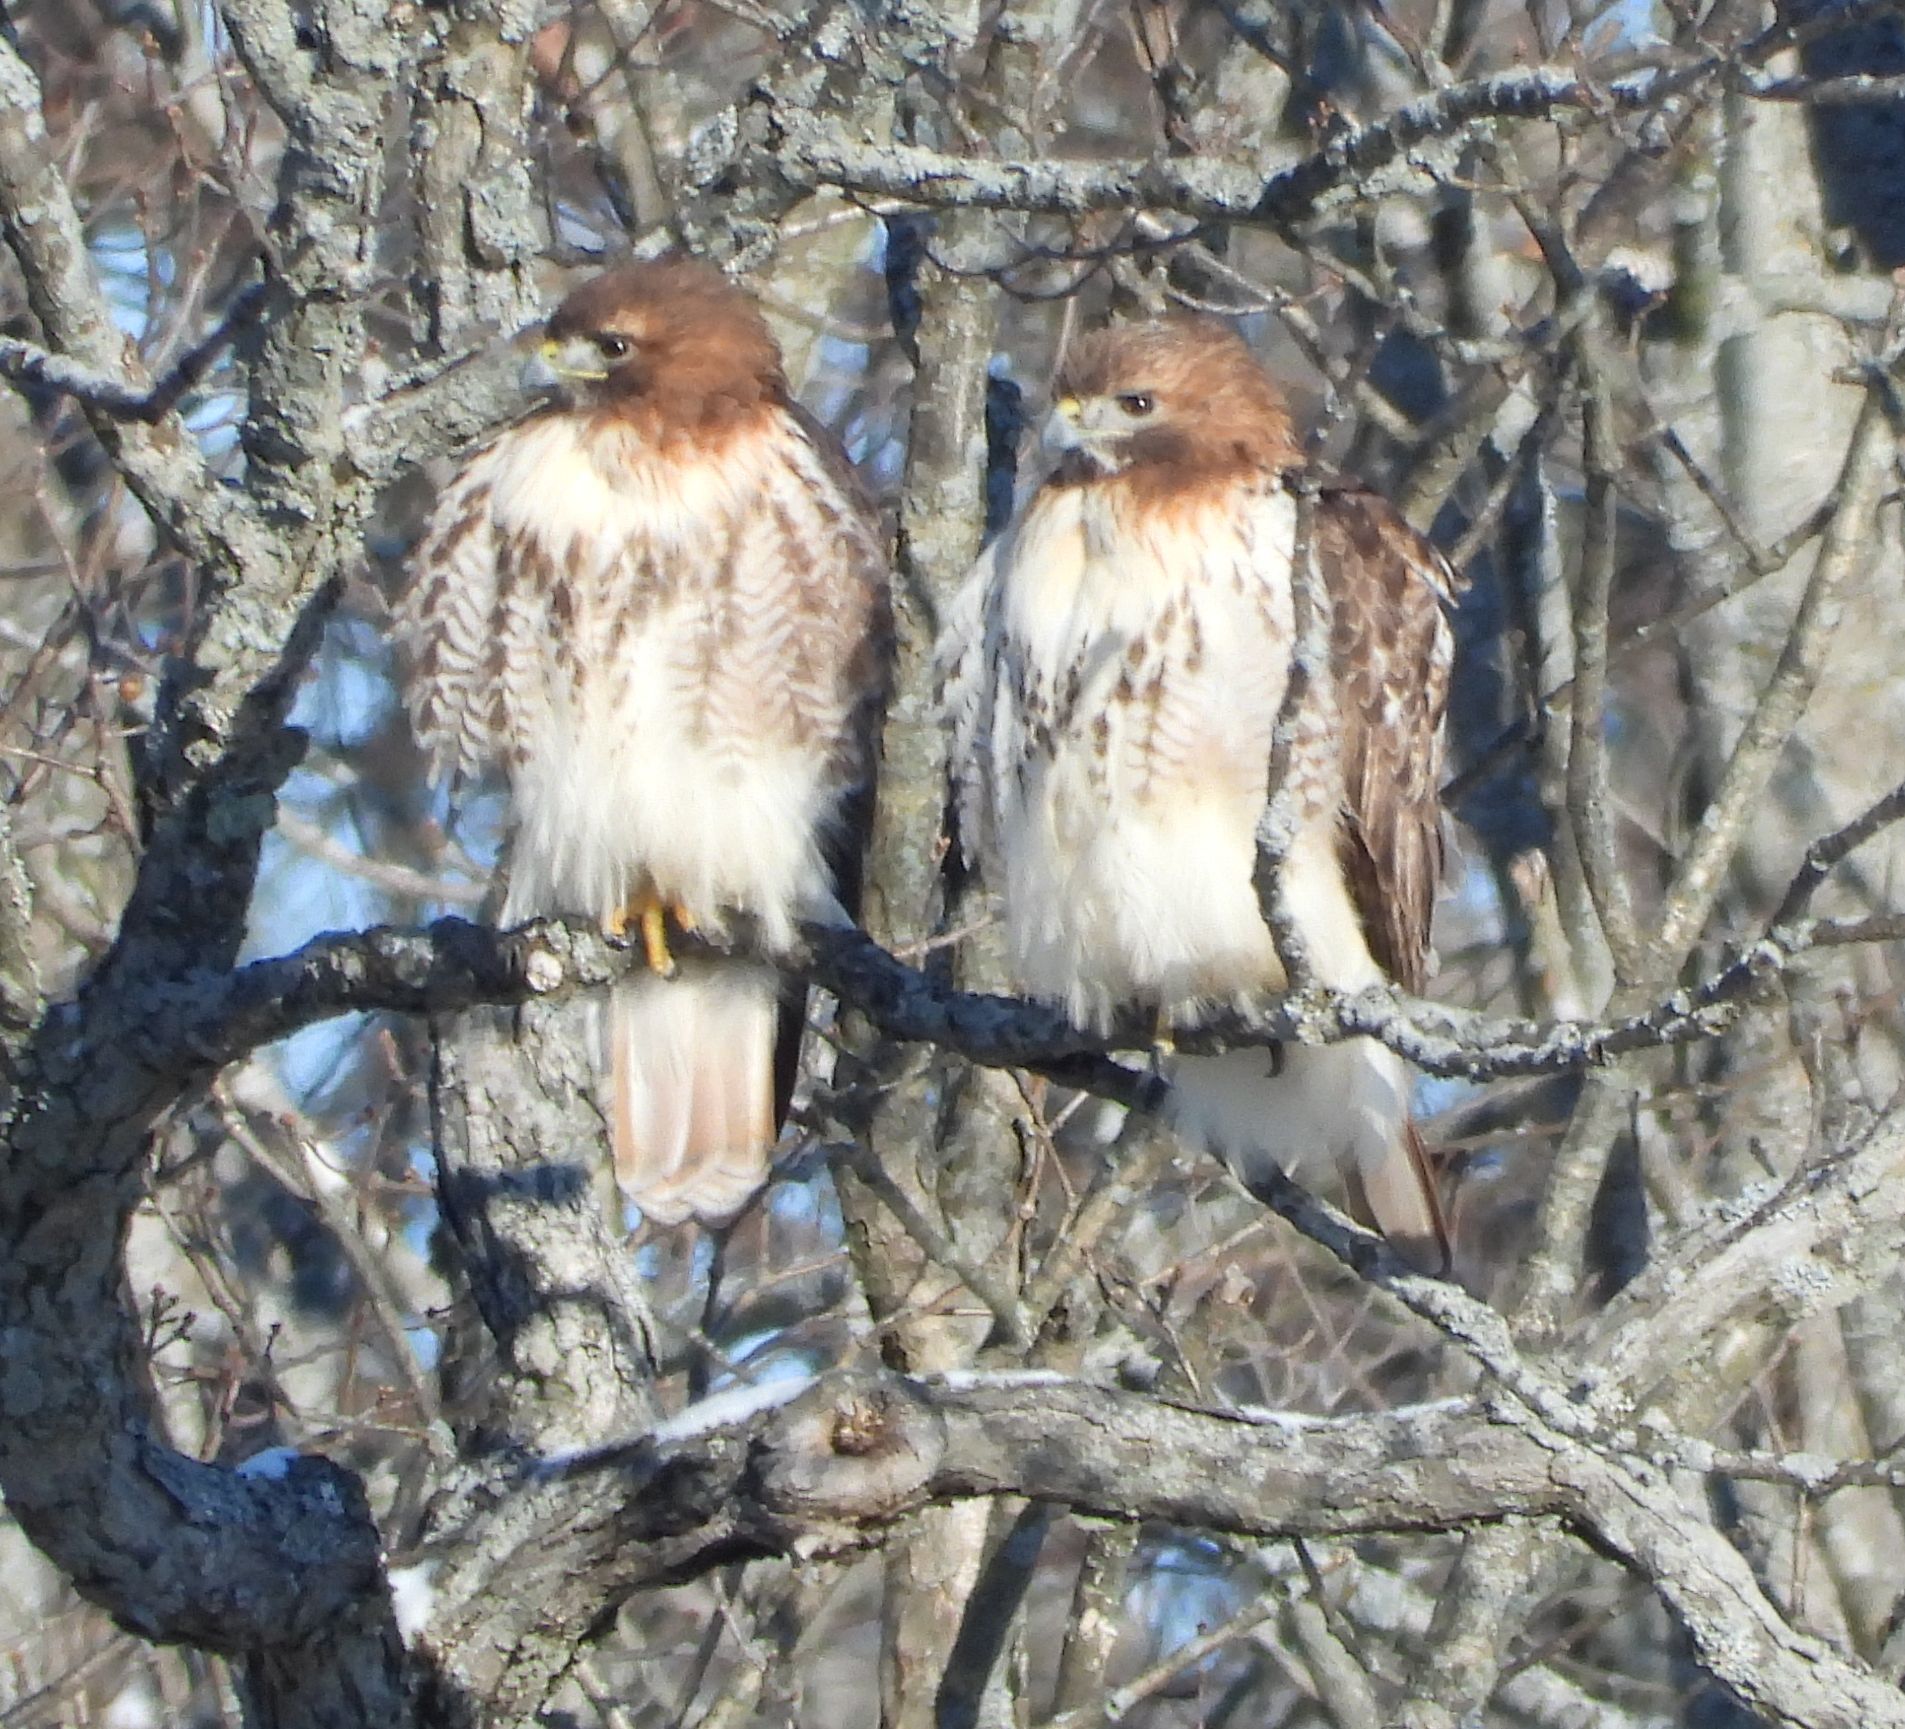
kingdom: Animalia
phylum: Chordata
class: Aves
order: Accipitriformes
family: Accipitridae
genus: Buteo
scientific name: Buteo jamaicensis
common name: Red-tailed hawk
